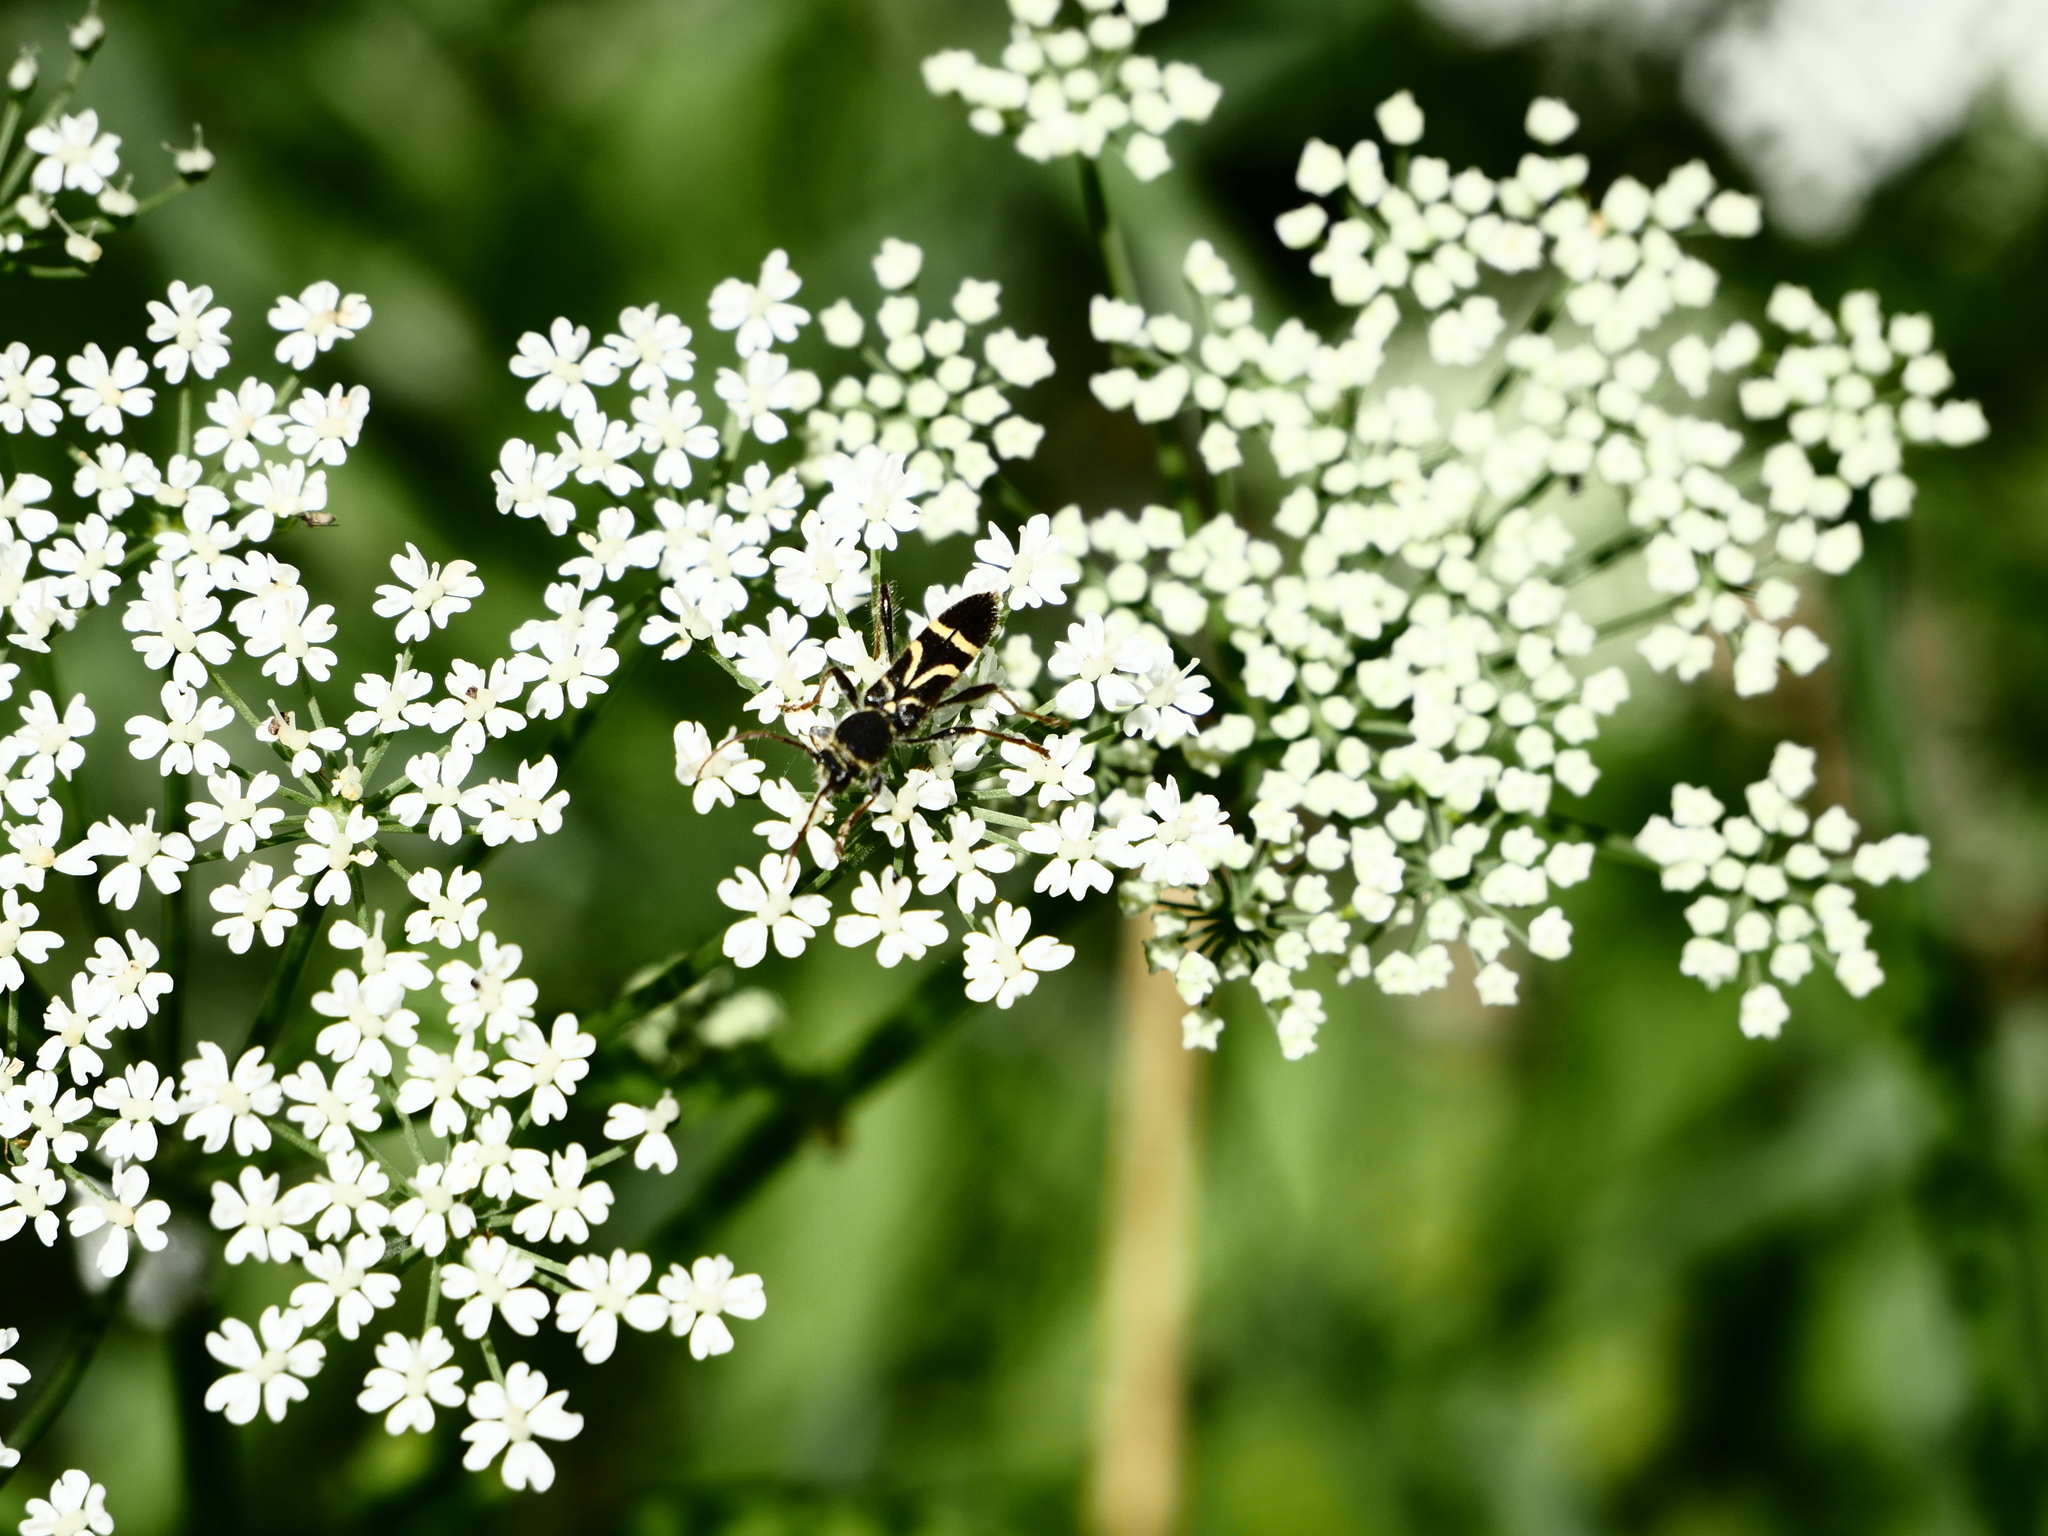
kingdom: Animalia
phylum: Arthropoda
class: Insecta
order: Coleoptera
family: Cerambycidae
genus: Cyrtoclytus
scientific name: Cyrtoclytus capra
